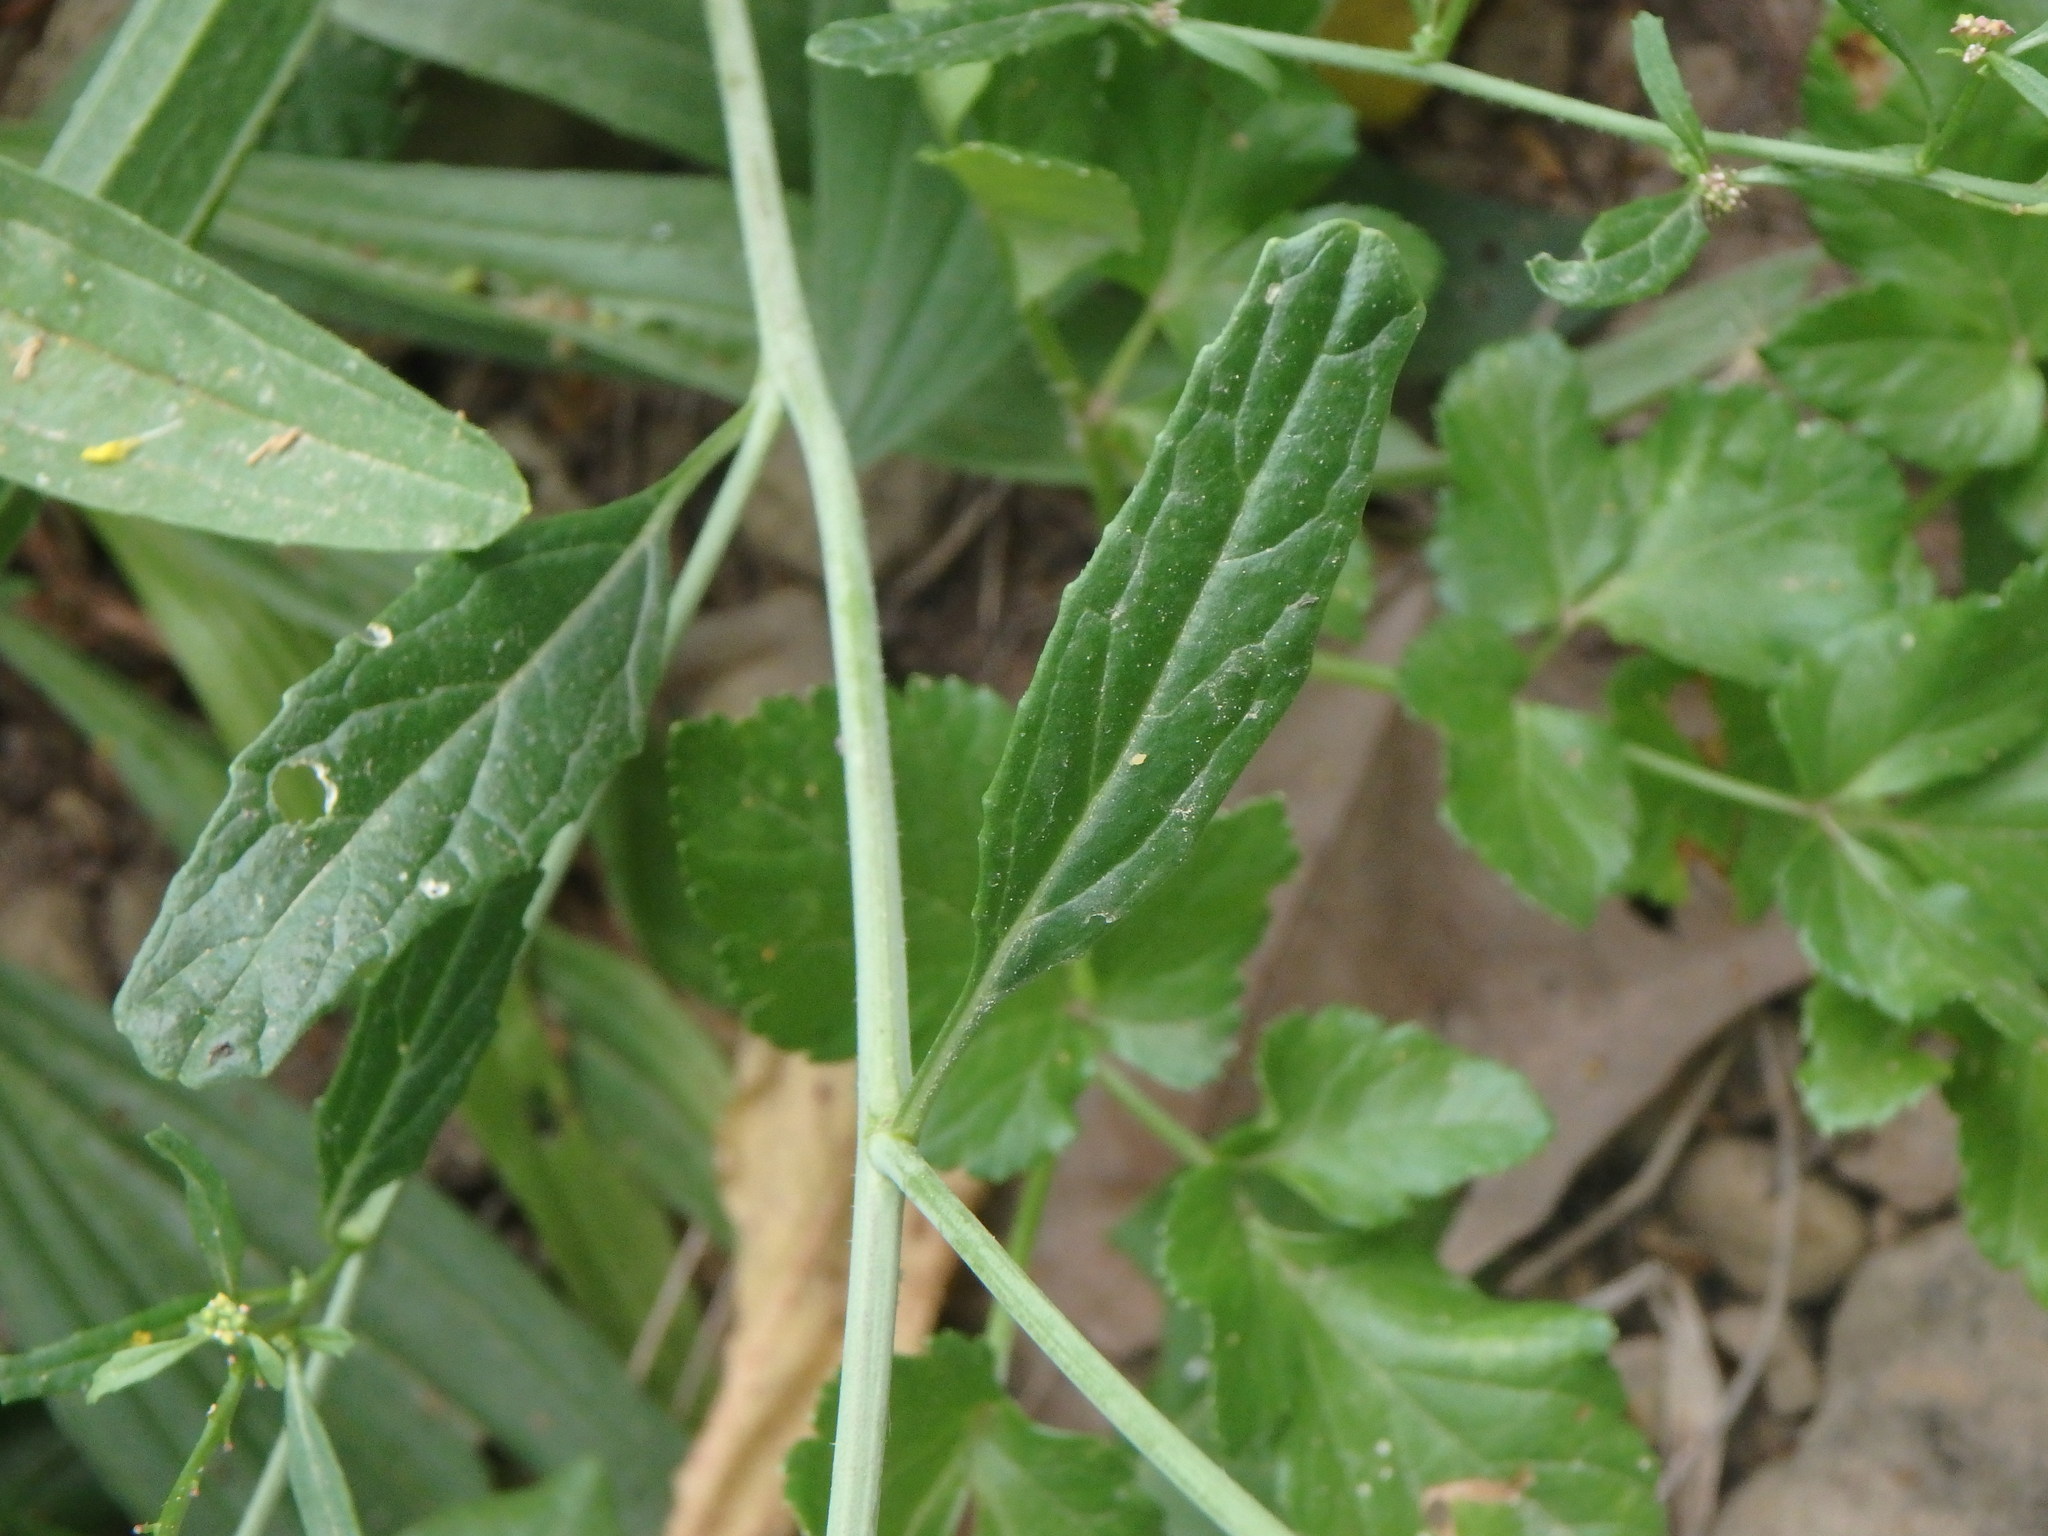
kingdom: Plantae
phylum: Tracheophyta
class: Magnoliopsida
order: Brassicales
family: Brassicaceae
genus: Rapistrum
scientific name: Rapistrum rugosum
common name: Annual bastardcabbage
